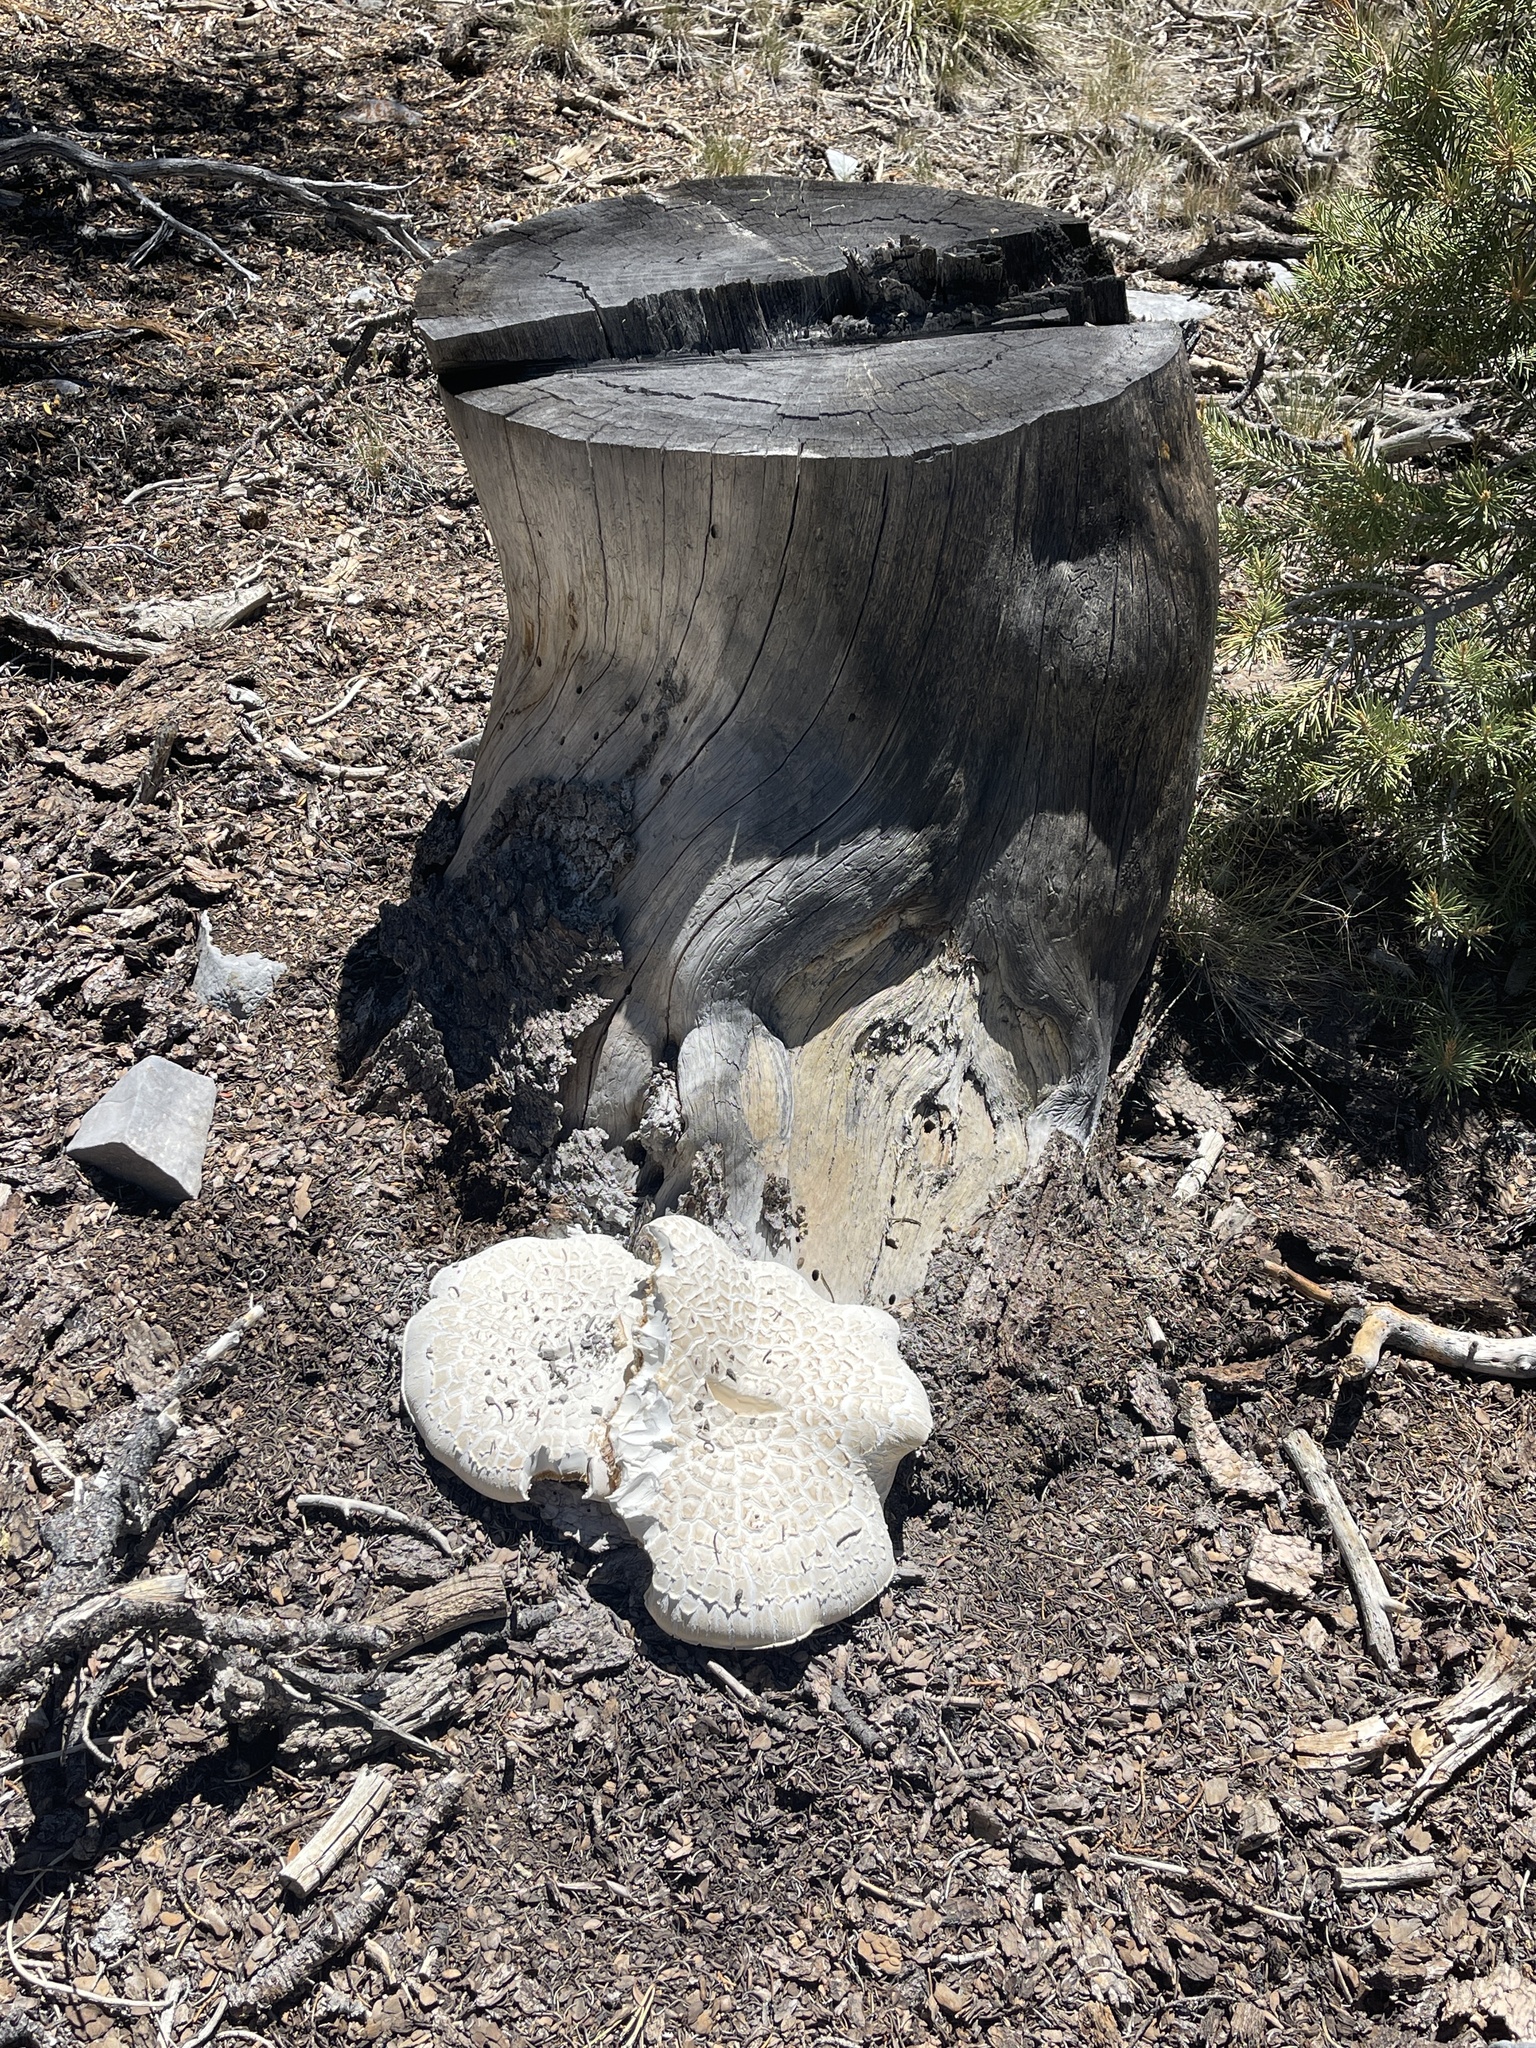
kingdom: Fungi
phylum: Basidiomycota
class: Agaricomycetes
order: Gloeophyllales
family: Gloeophyllaceae
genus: Neolentinus
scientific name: Neolentinus ponderosus
